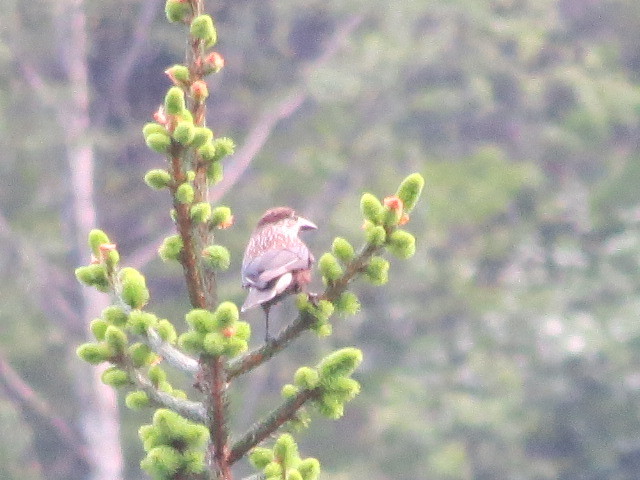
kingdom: Animalia
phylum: Chordata
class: Aves
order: Passeriformes
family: Corvidae
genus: Nucifraga
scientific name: Nucifraga caryocatactes
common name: Spotted nutcracker
